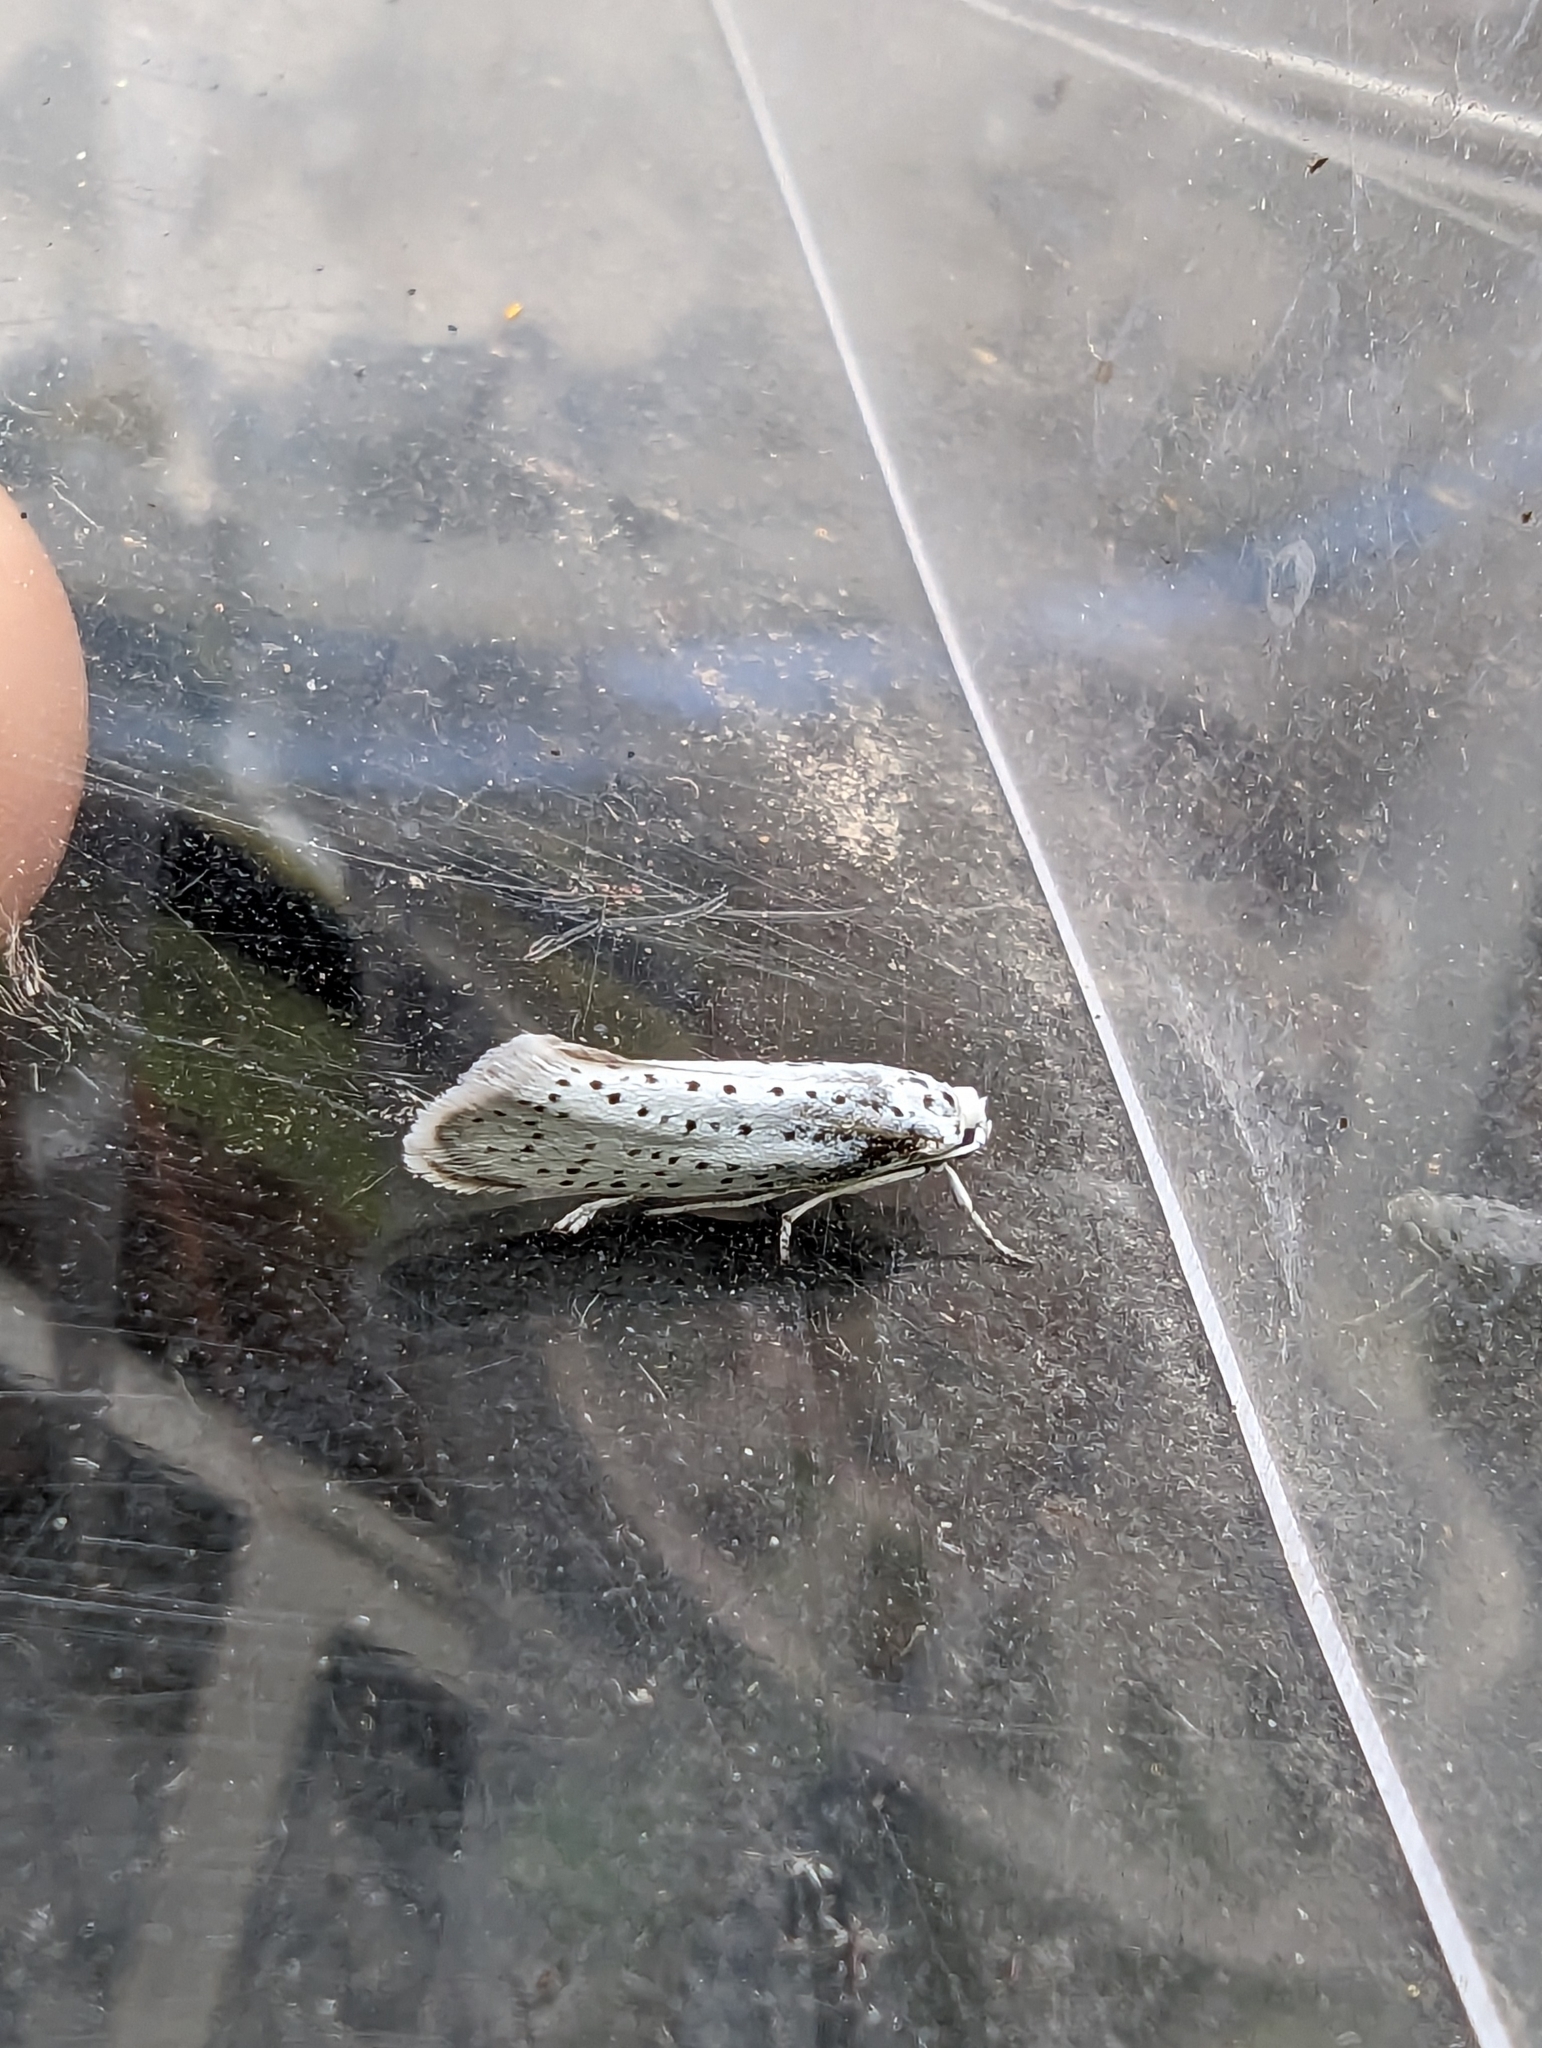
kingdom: Animalia
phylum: Arthropoda
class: Insecta
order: Lepidoptera
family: Yponomeutidae
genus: Yponomeuta
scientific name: Yponomeuta evonymella
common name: Bird-cherry ermine
